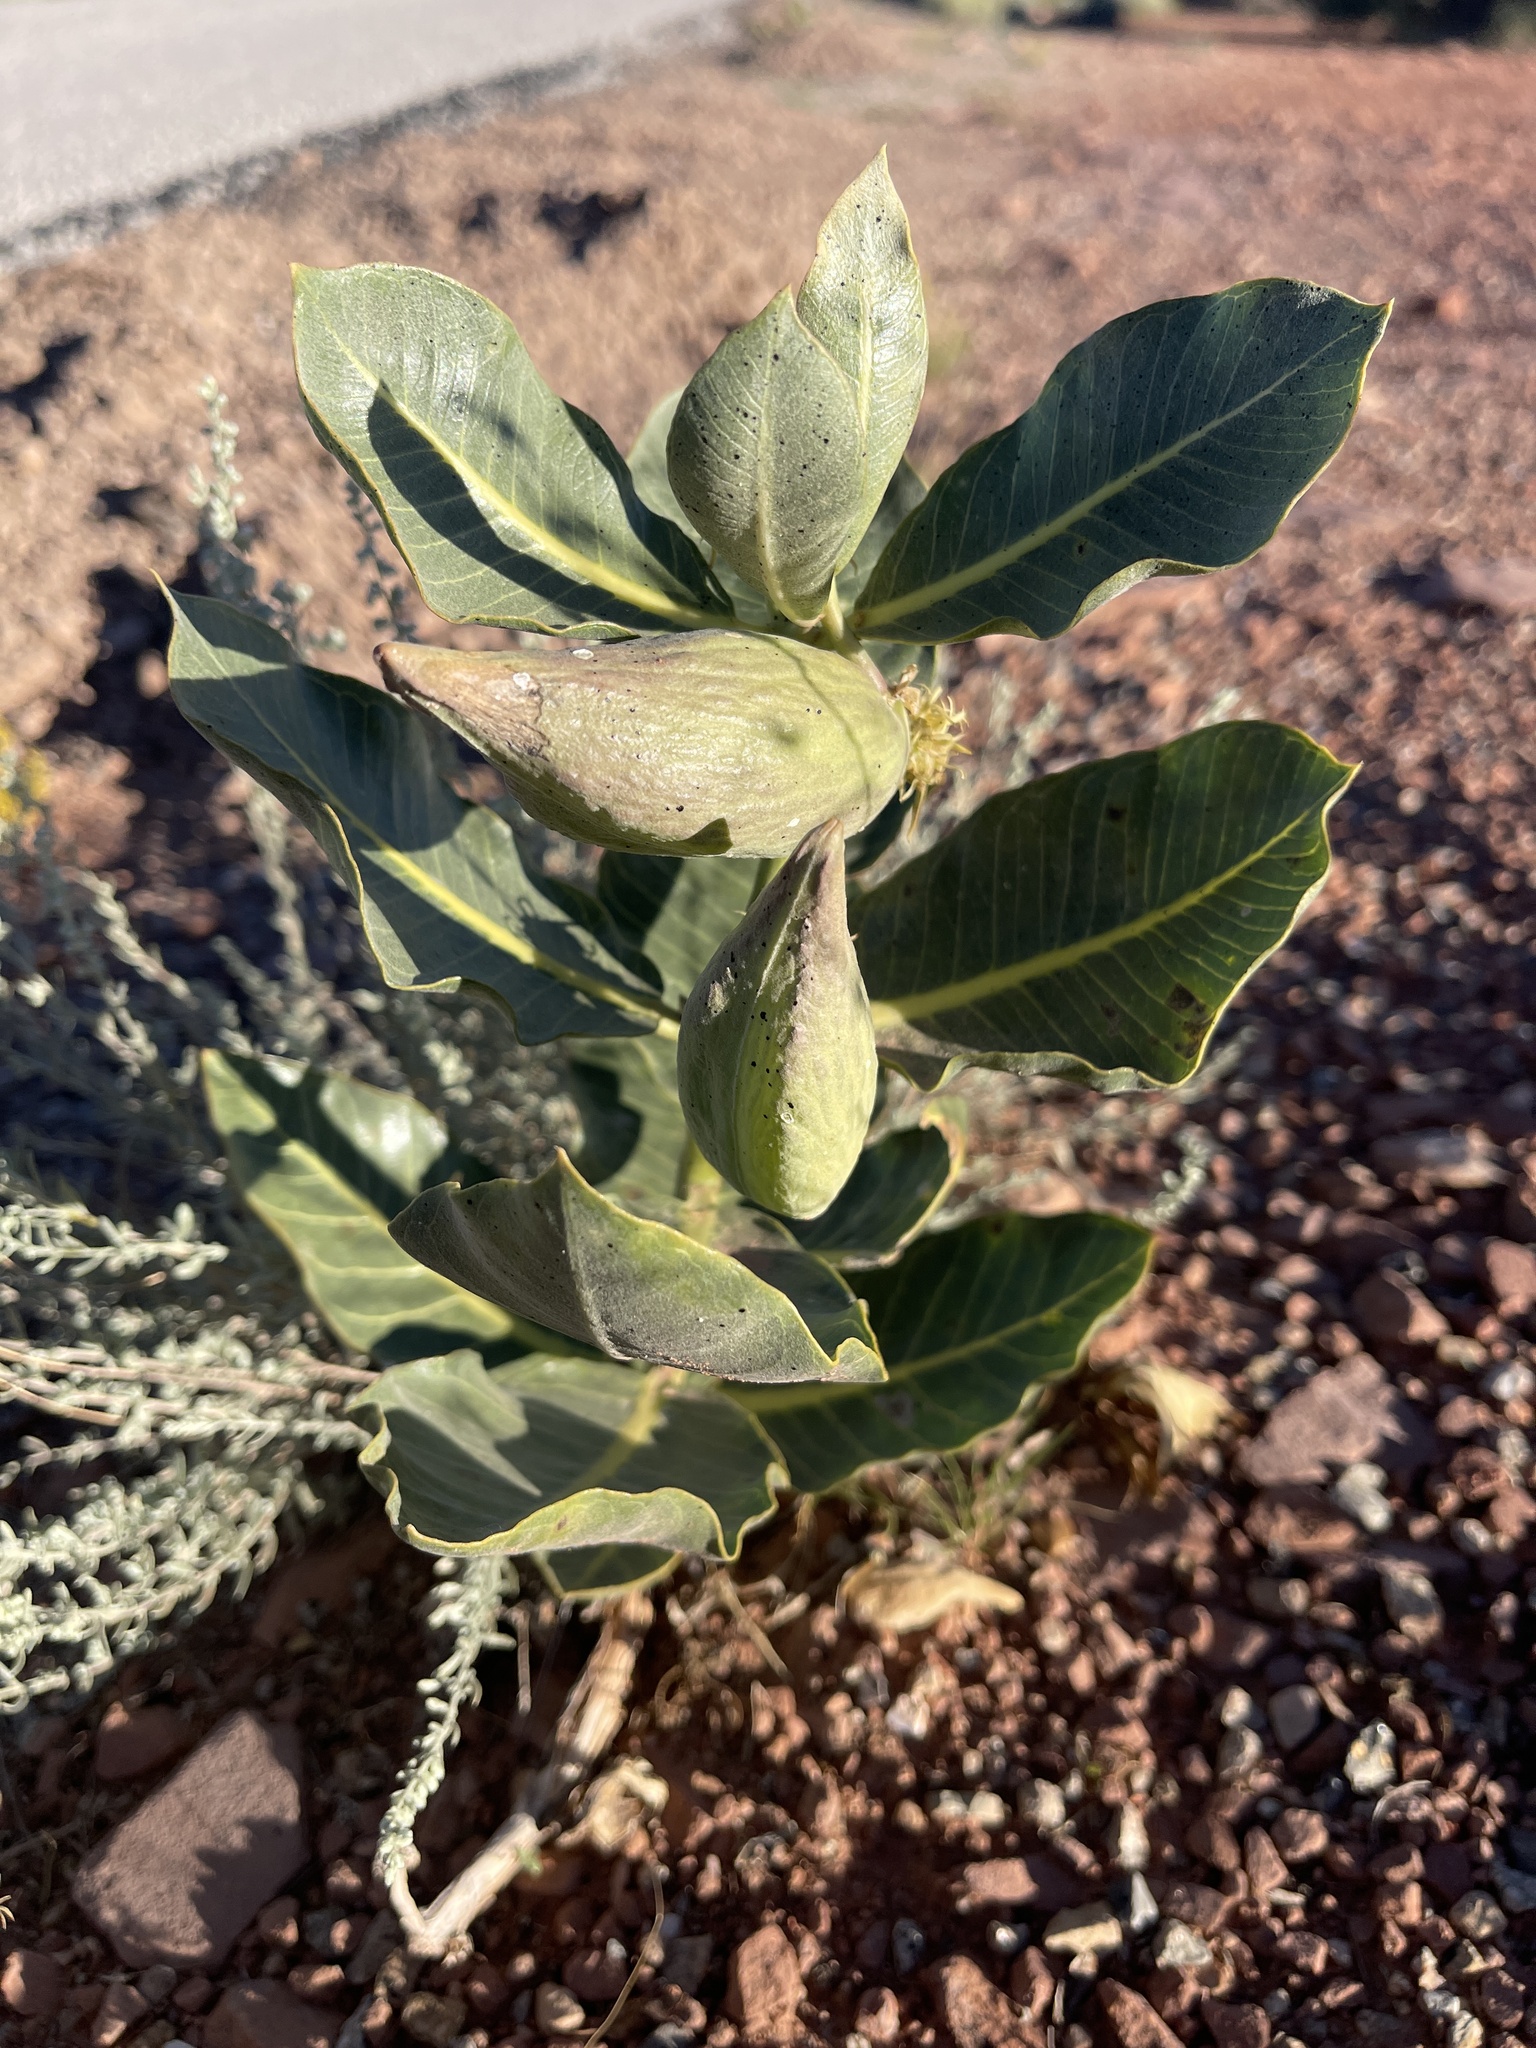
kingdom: Plantae
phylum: Tracheophyta
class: Magnoliopsida
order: Gentianales
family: Apocynaceae
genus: Asclepias
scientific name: Asclepias latifolia
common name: Broadleaf milkweed
